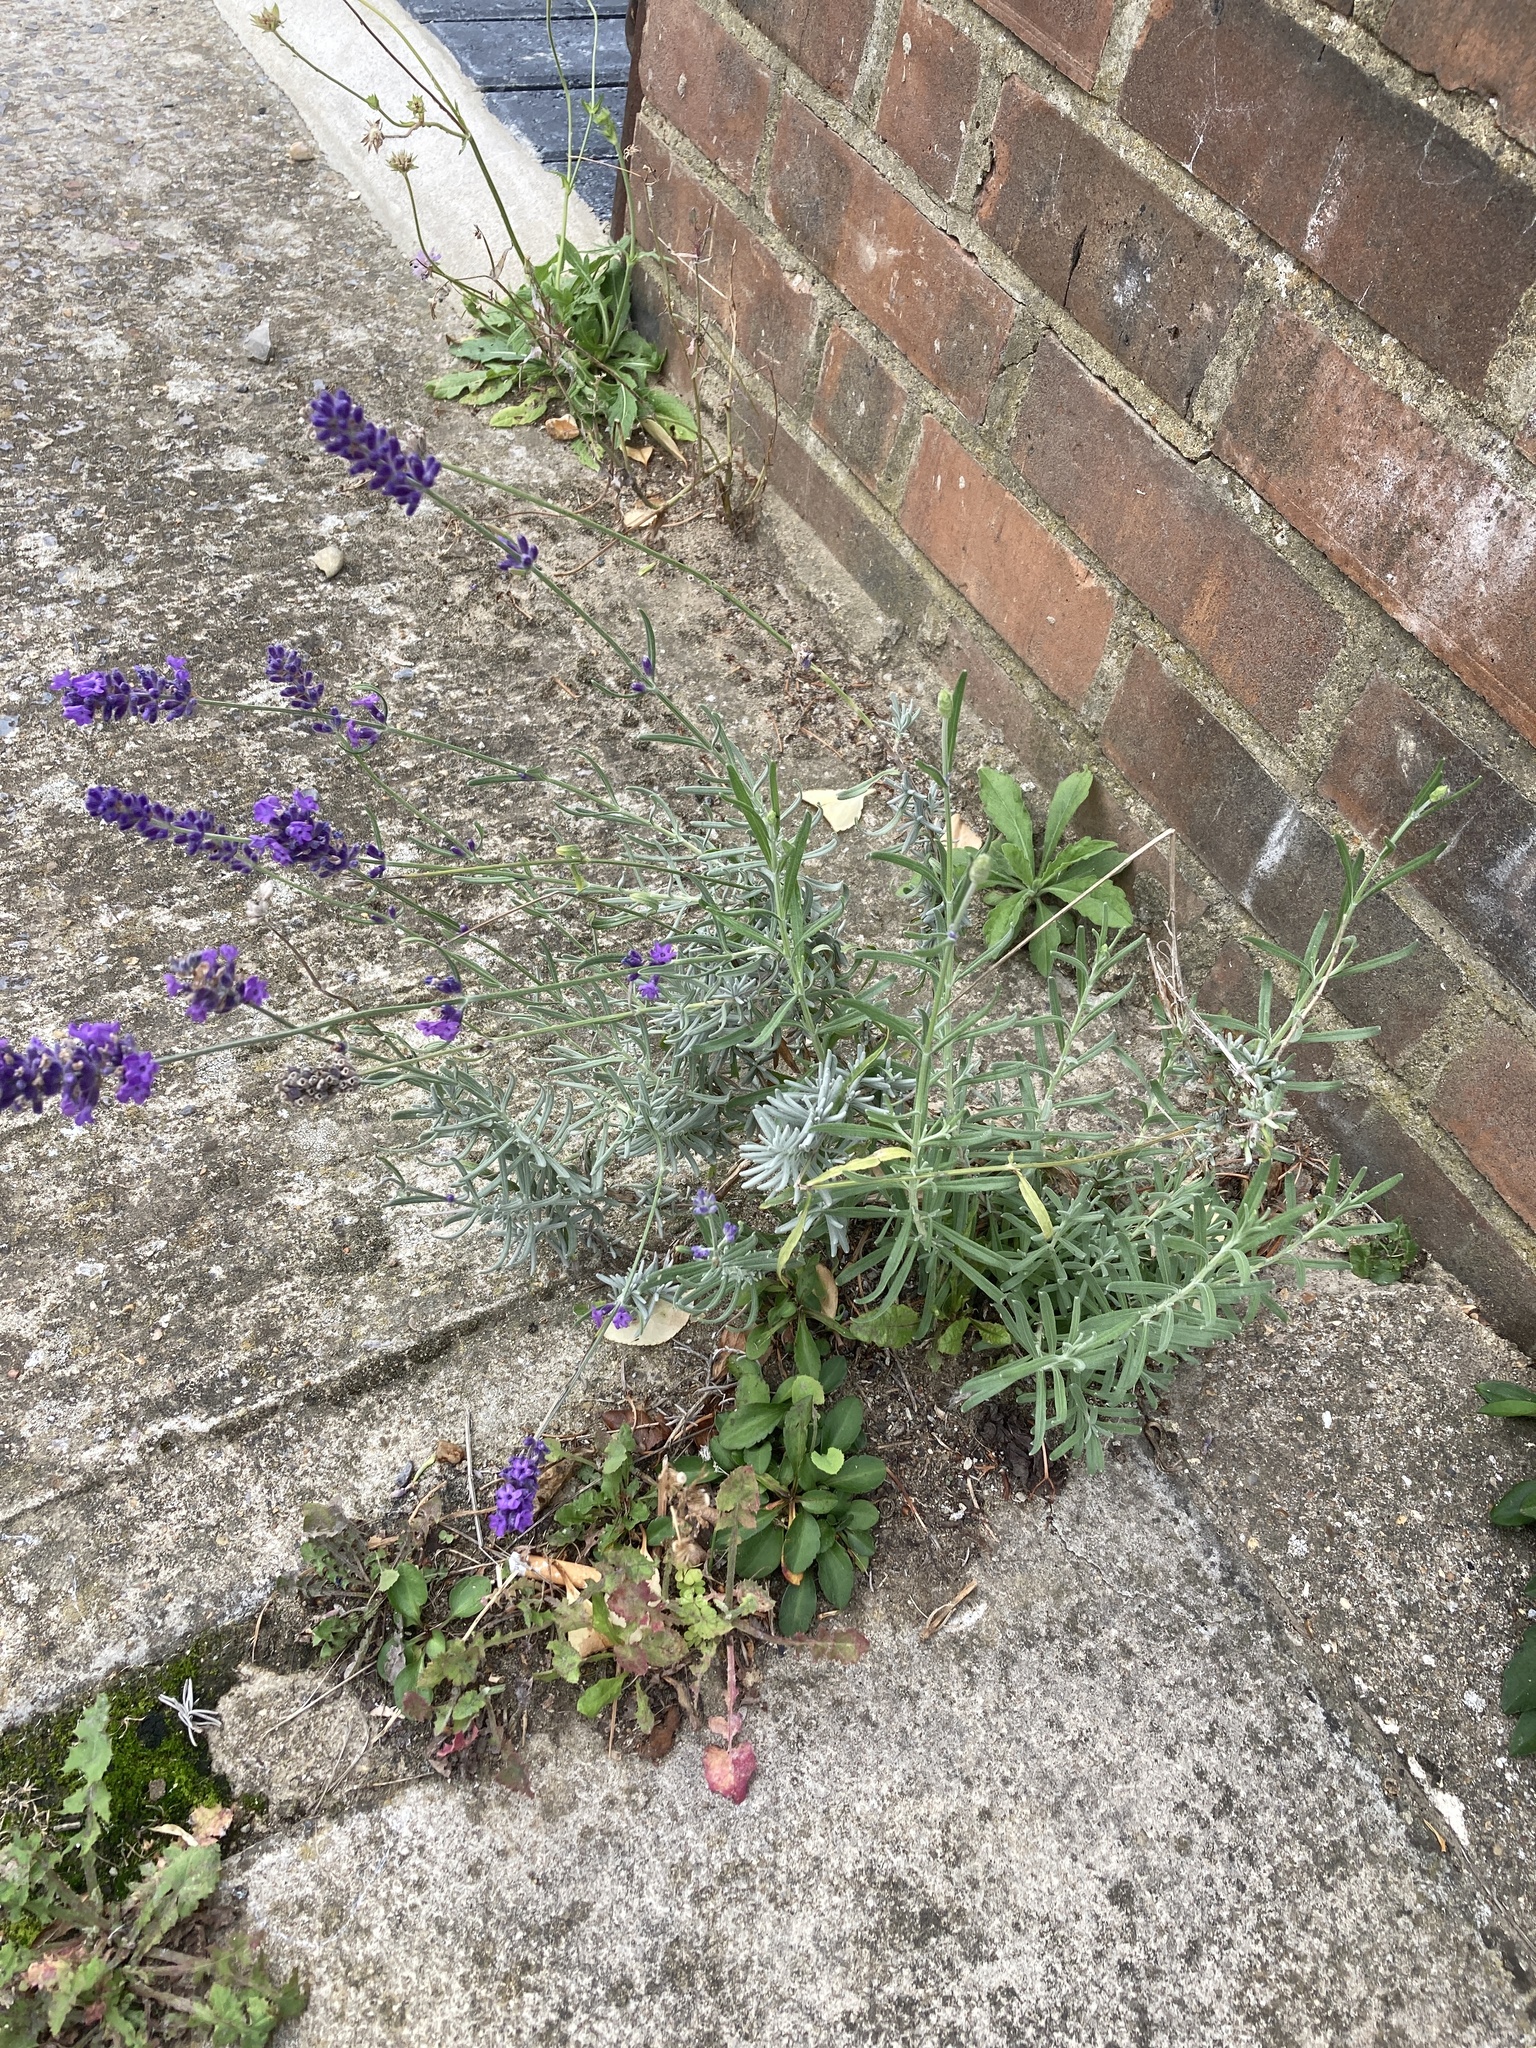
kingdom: Plantae
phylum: Tracheophyta
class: Magnoliopsida
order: Lamiales
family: Lamiaceae
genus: Lavandula
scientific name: Lavandula angustifolia
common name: Garden lavender
